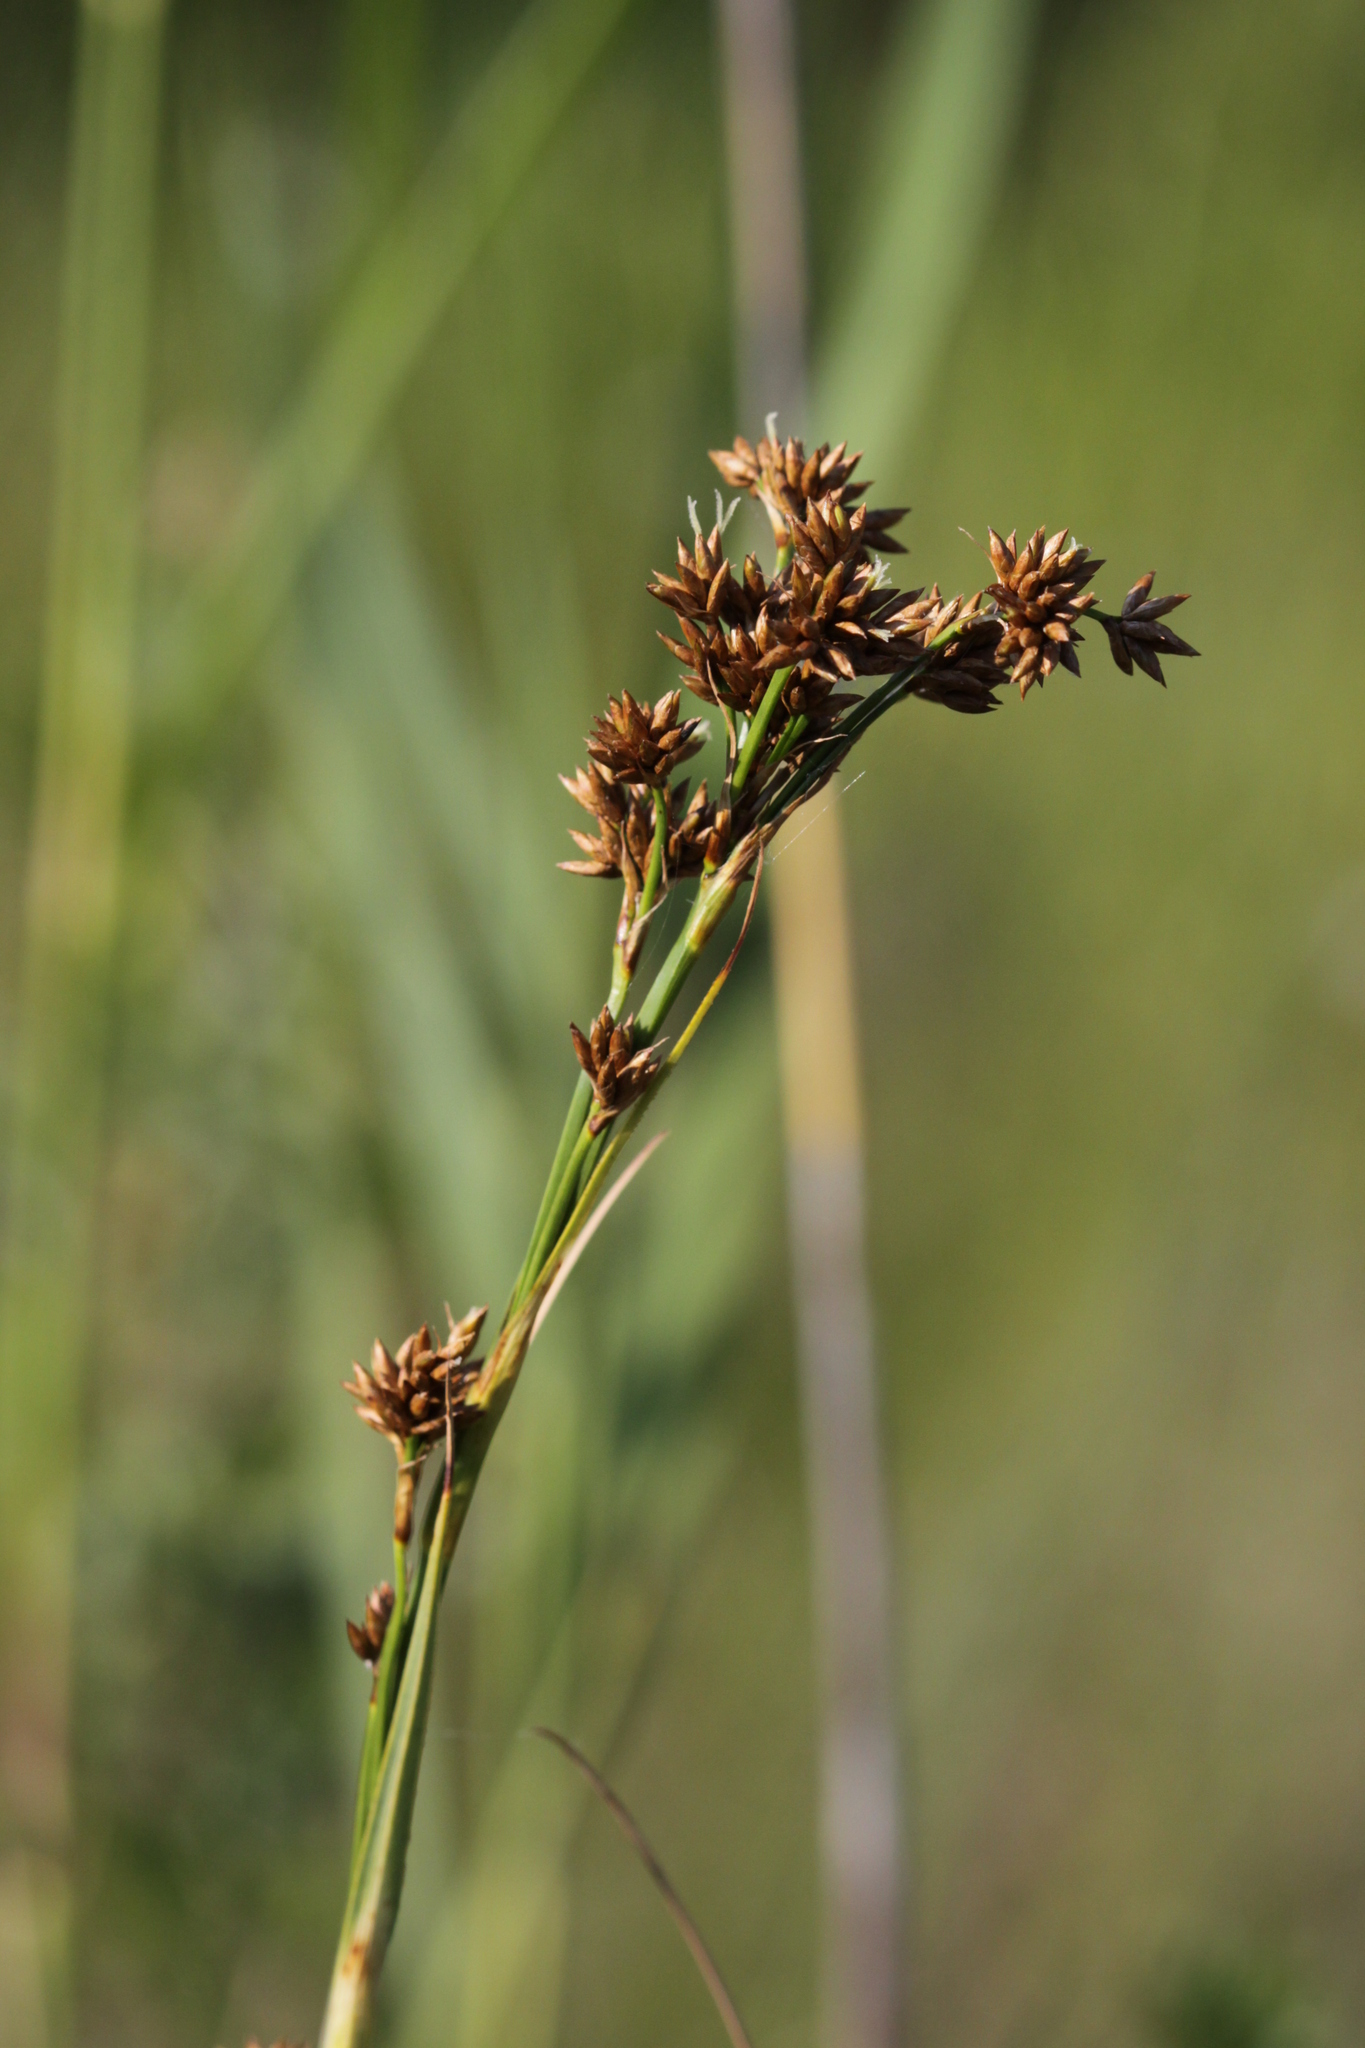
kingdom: Plantae
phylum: Tracheophyta
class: Liliopsida
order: Poales
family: Cyperaceae
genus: Cladium
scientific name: Cladium mariscus
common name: Great fen-sedge
